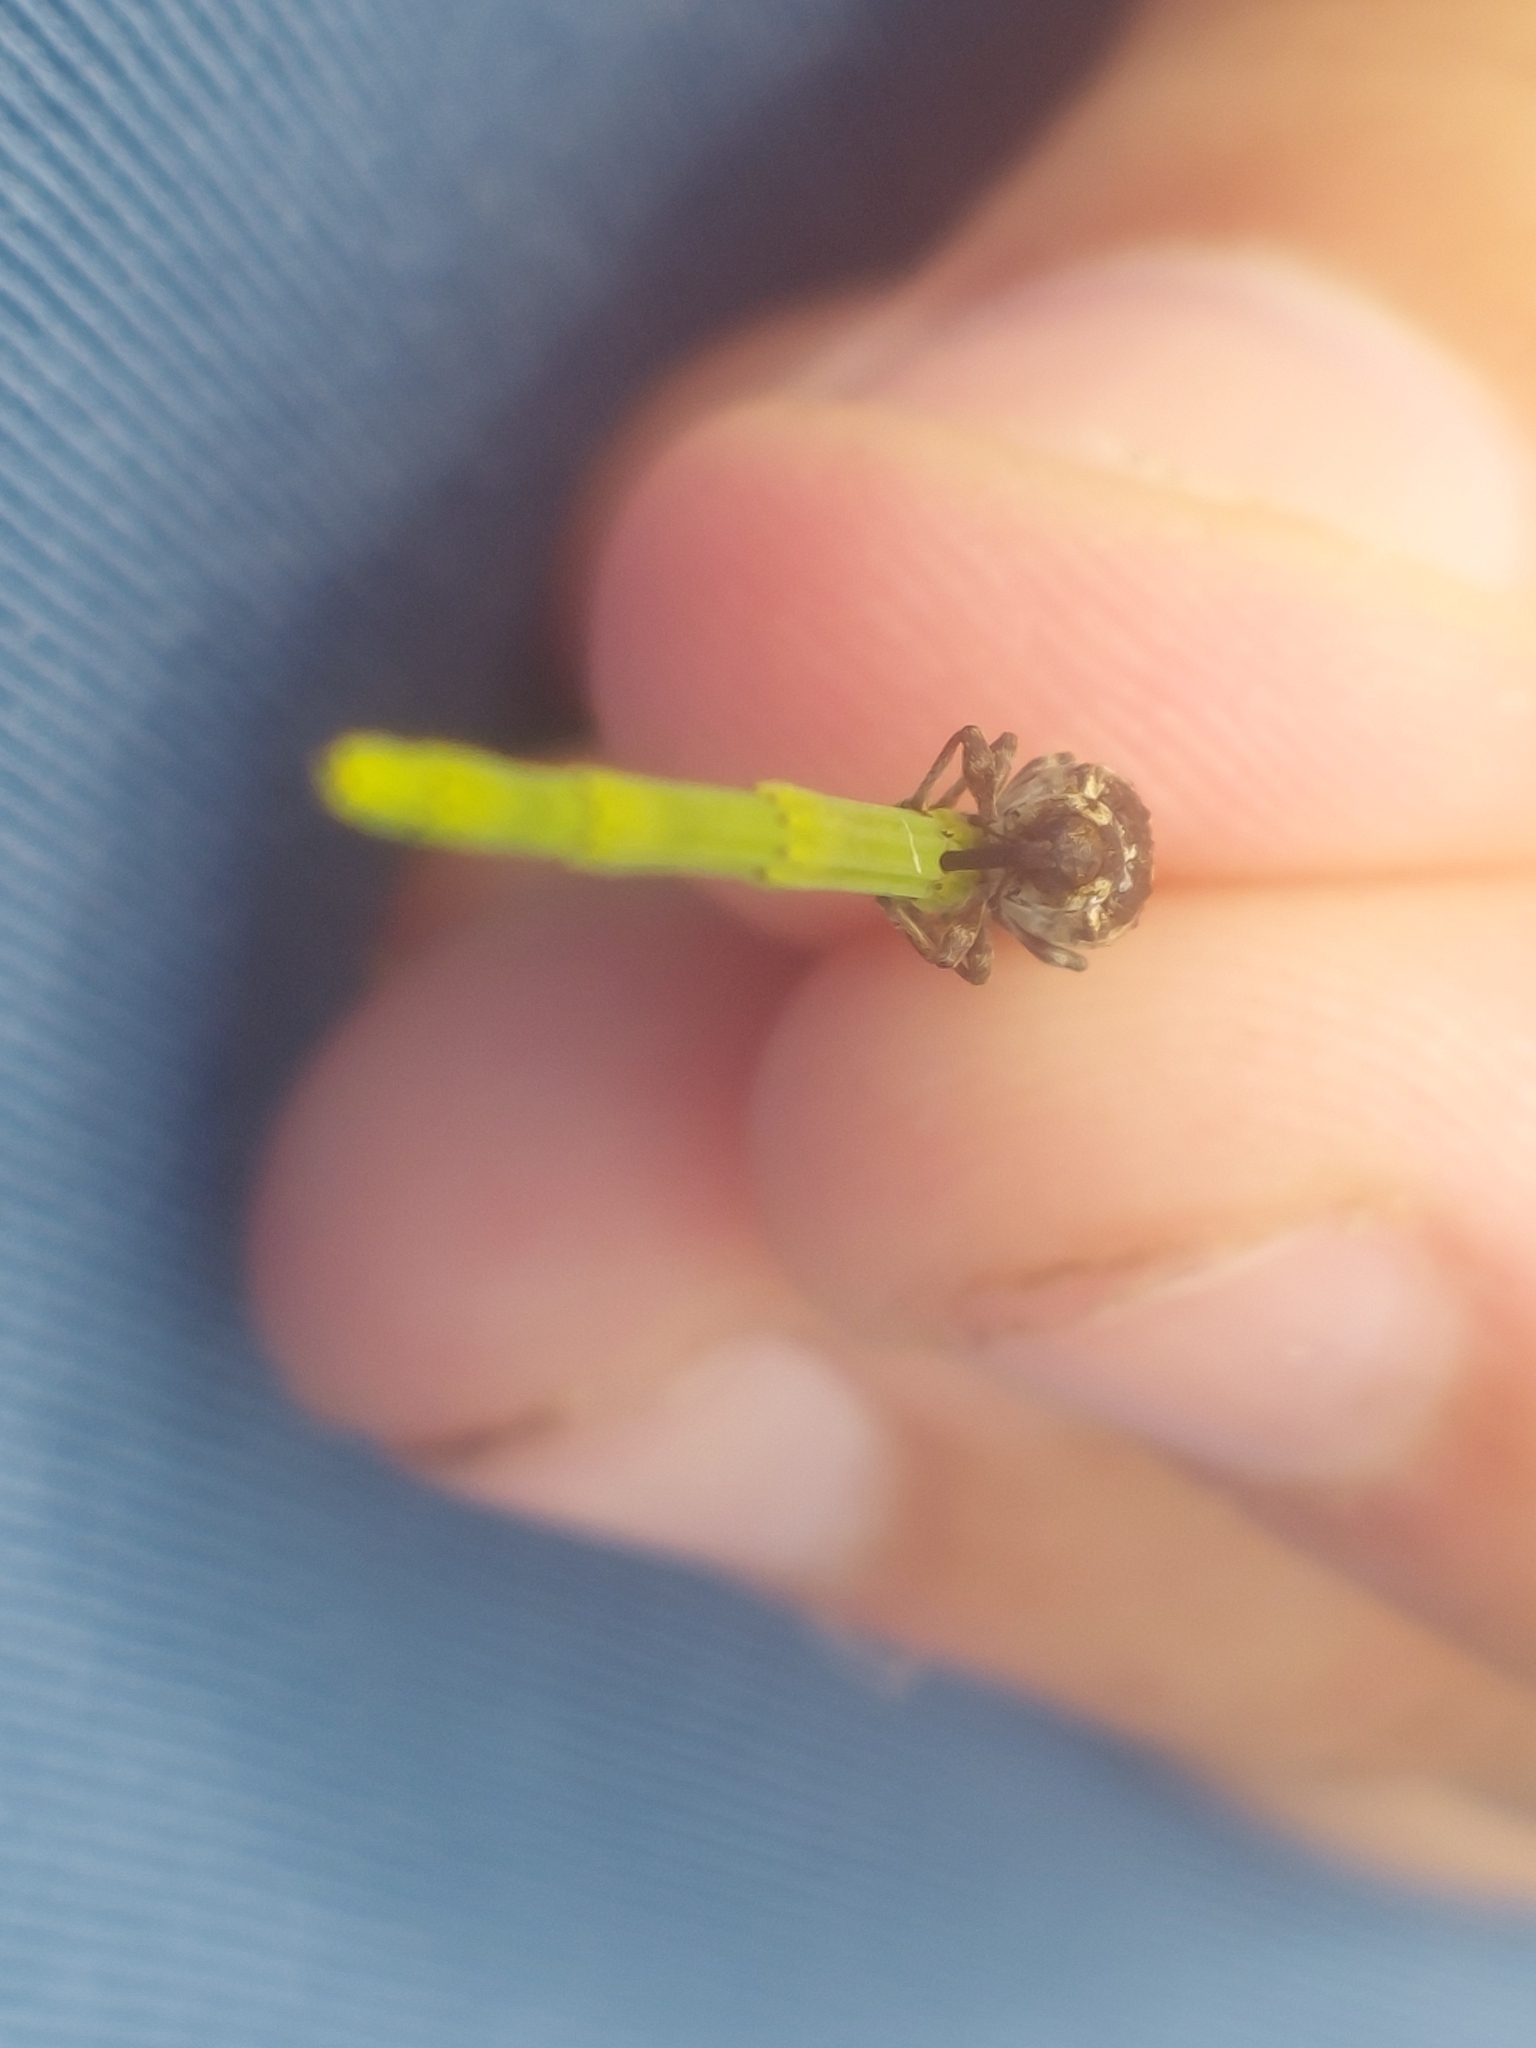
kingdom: Animalia
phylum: Arthropoda
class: Insecta
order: Coleoptera
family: Brachyceridae
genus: Grypus
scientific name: Grypus equiseti
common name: Horsetail weevil
